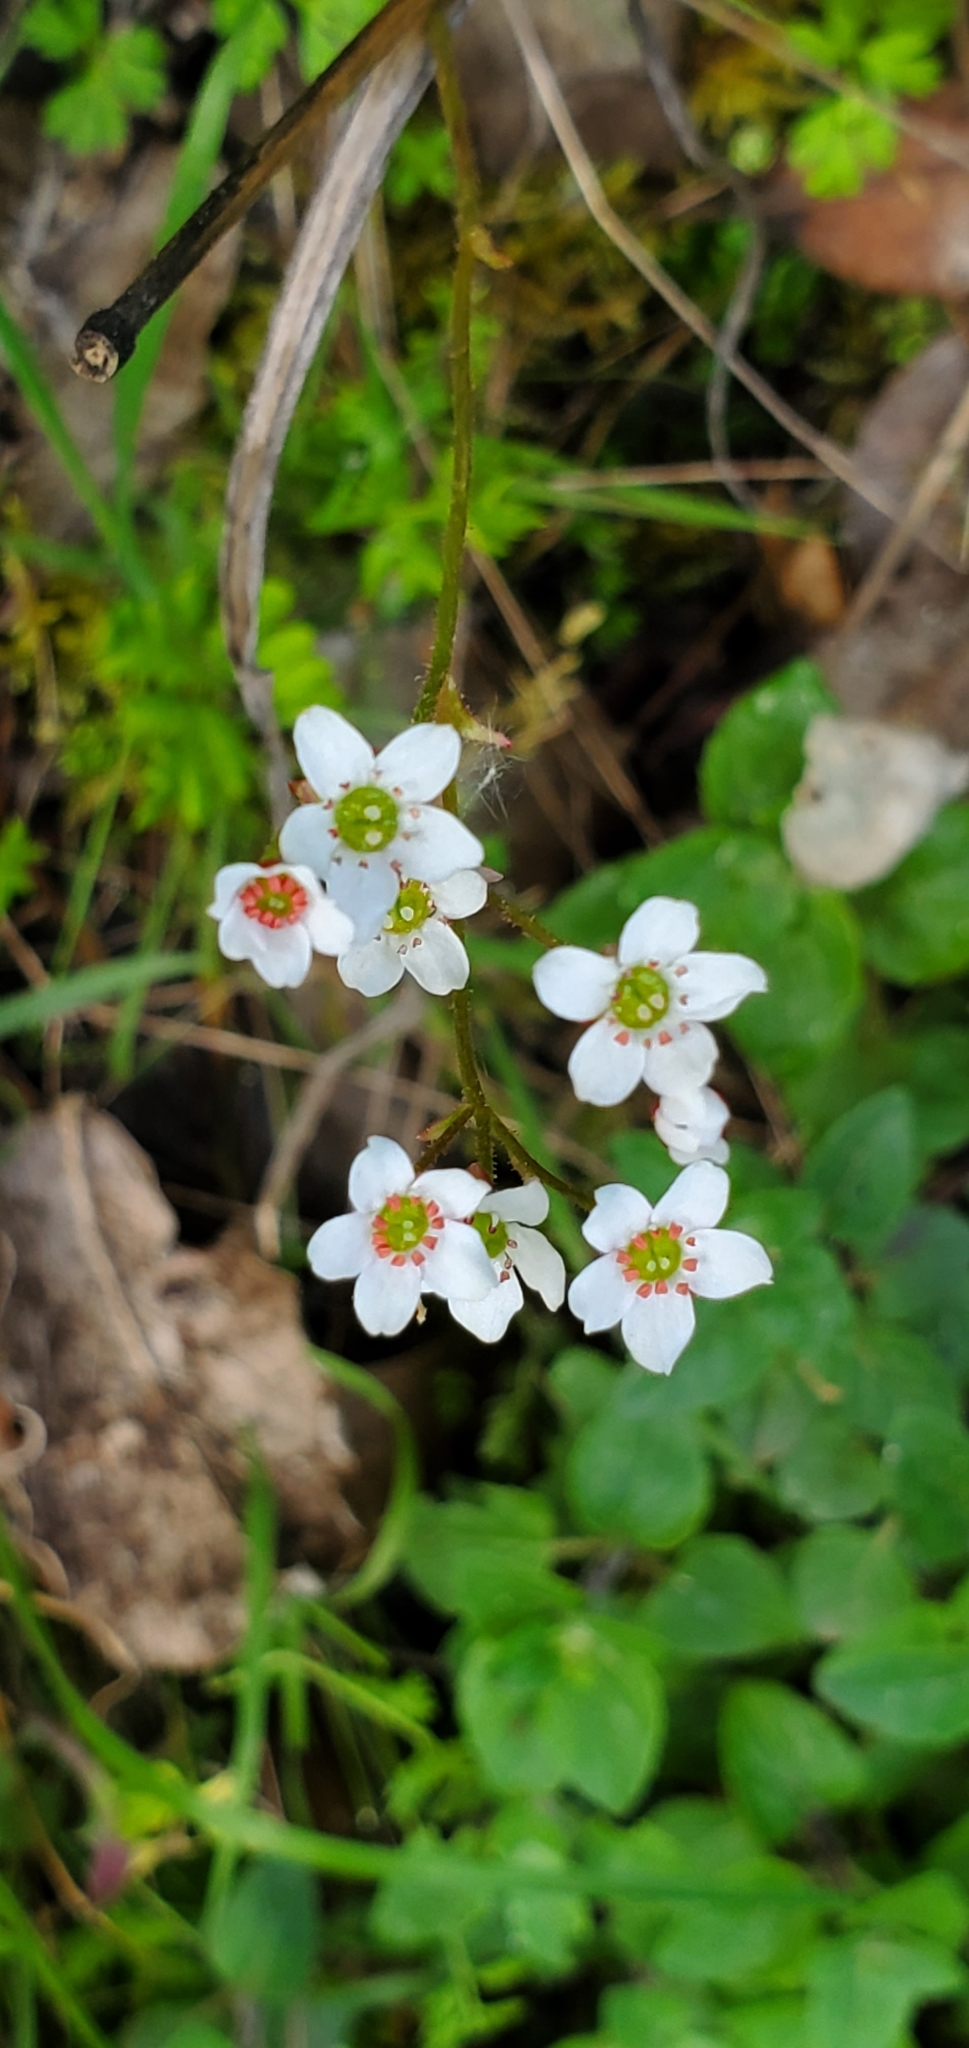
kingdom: Plantae
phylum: Tracheophyta
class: Magnoliopsida
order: Saxifragales
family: Saxifragaceae
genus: Micranthes
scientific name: Micranthes californica
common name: California saxifrage
